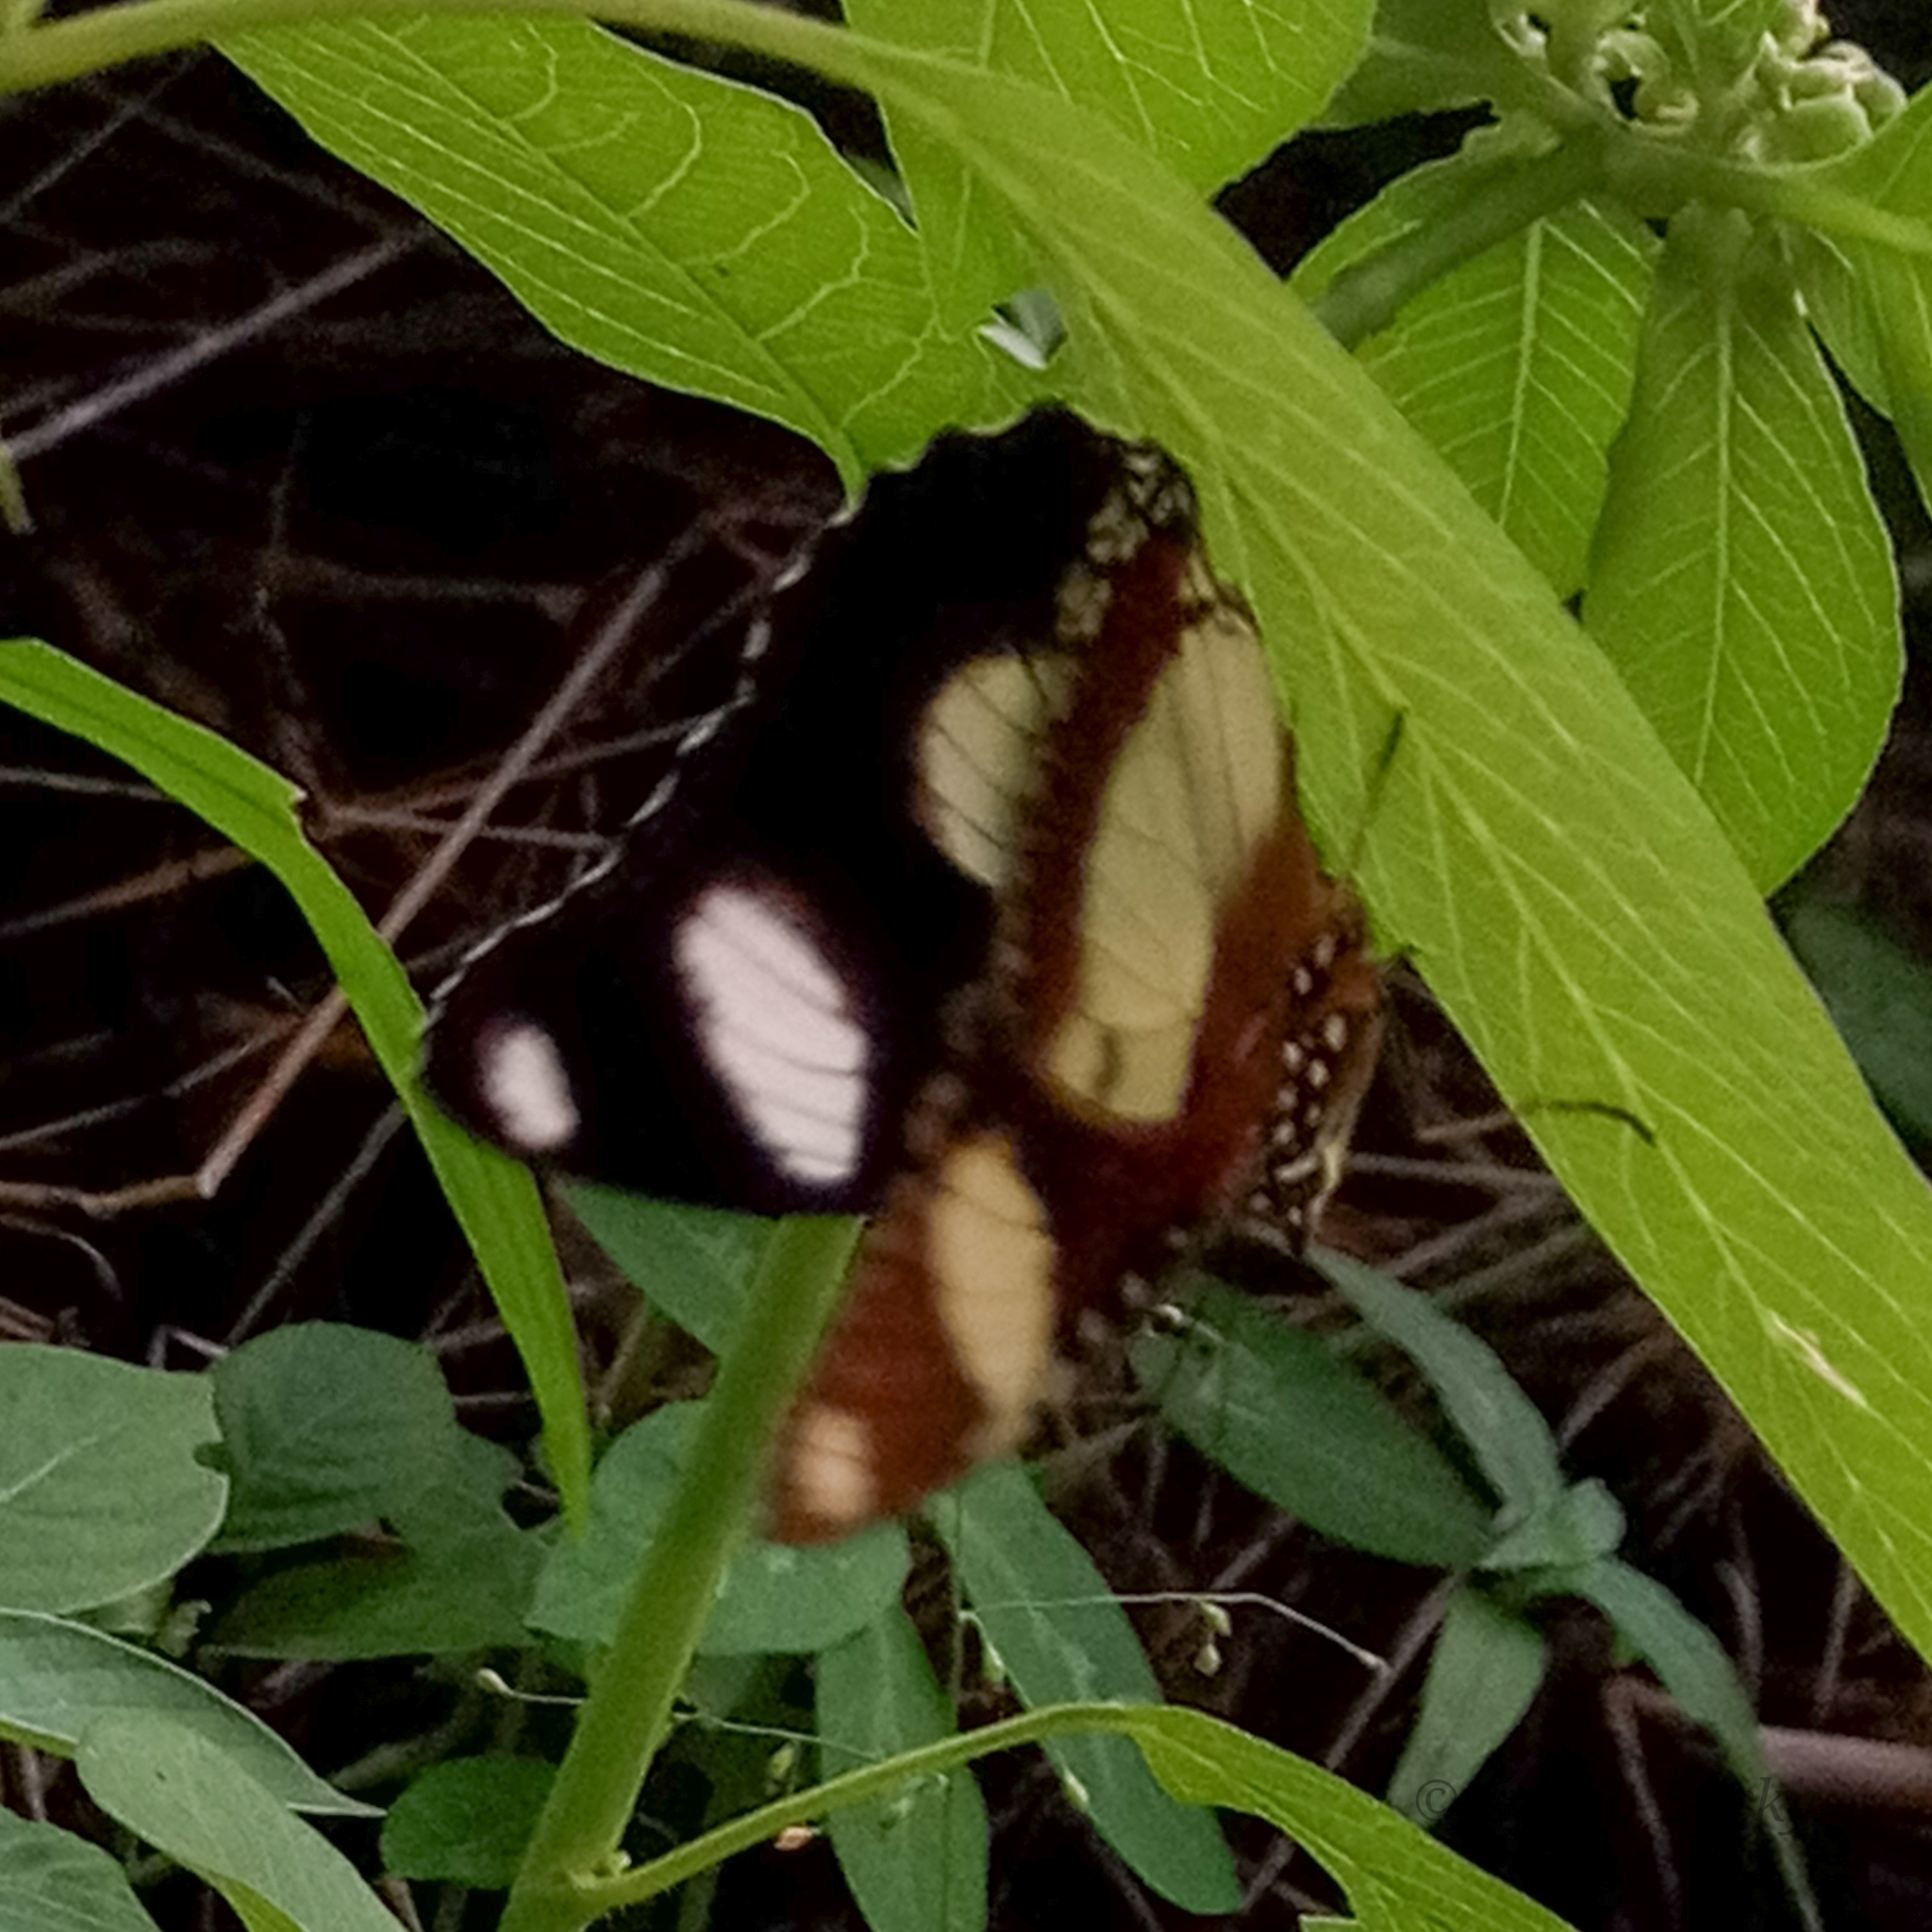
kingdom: Animalia
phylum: Arthropoda
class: Insecta
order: Lepidoptera
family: Nymphalidae
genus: Hypolimnas
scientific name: Hypolimnas misippus
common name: False plain tiger
